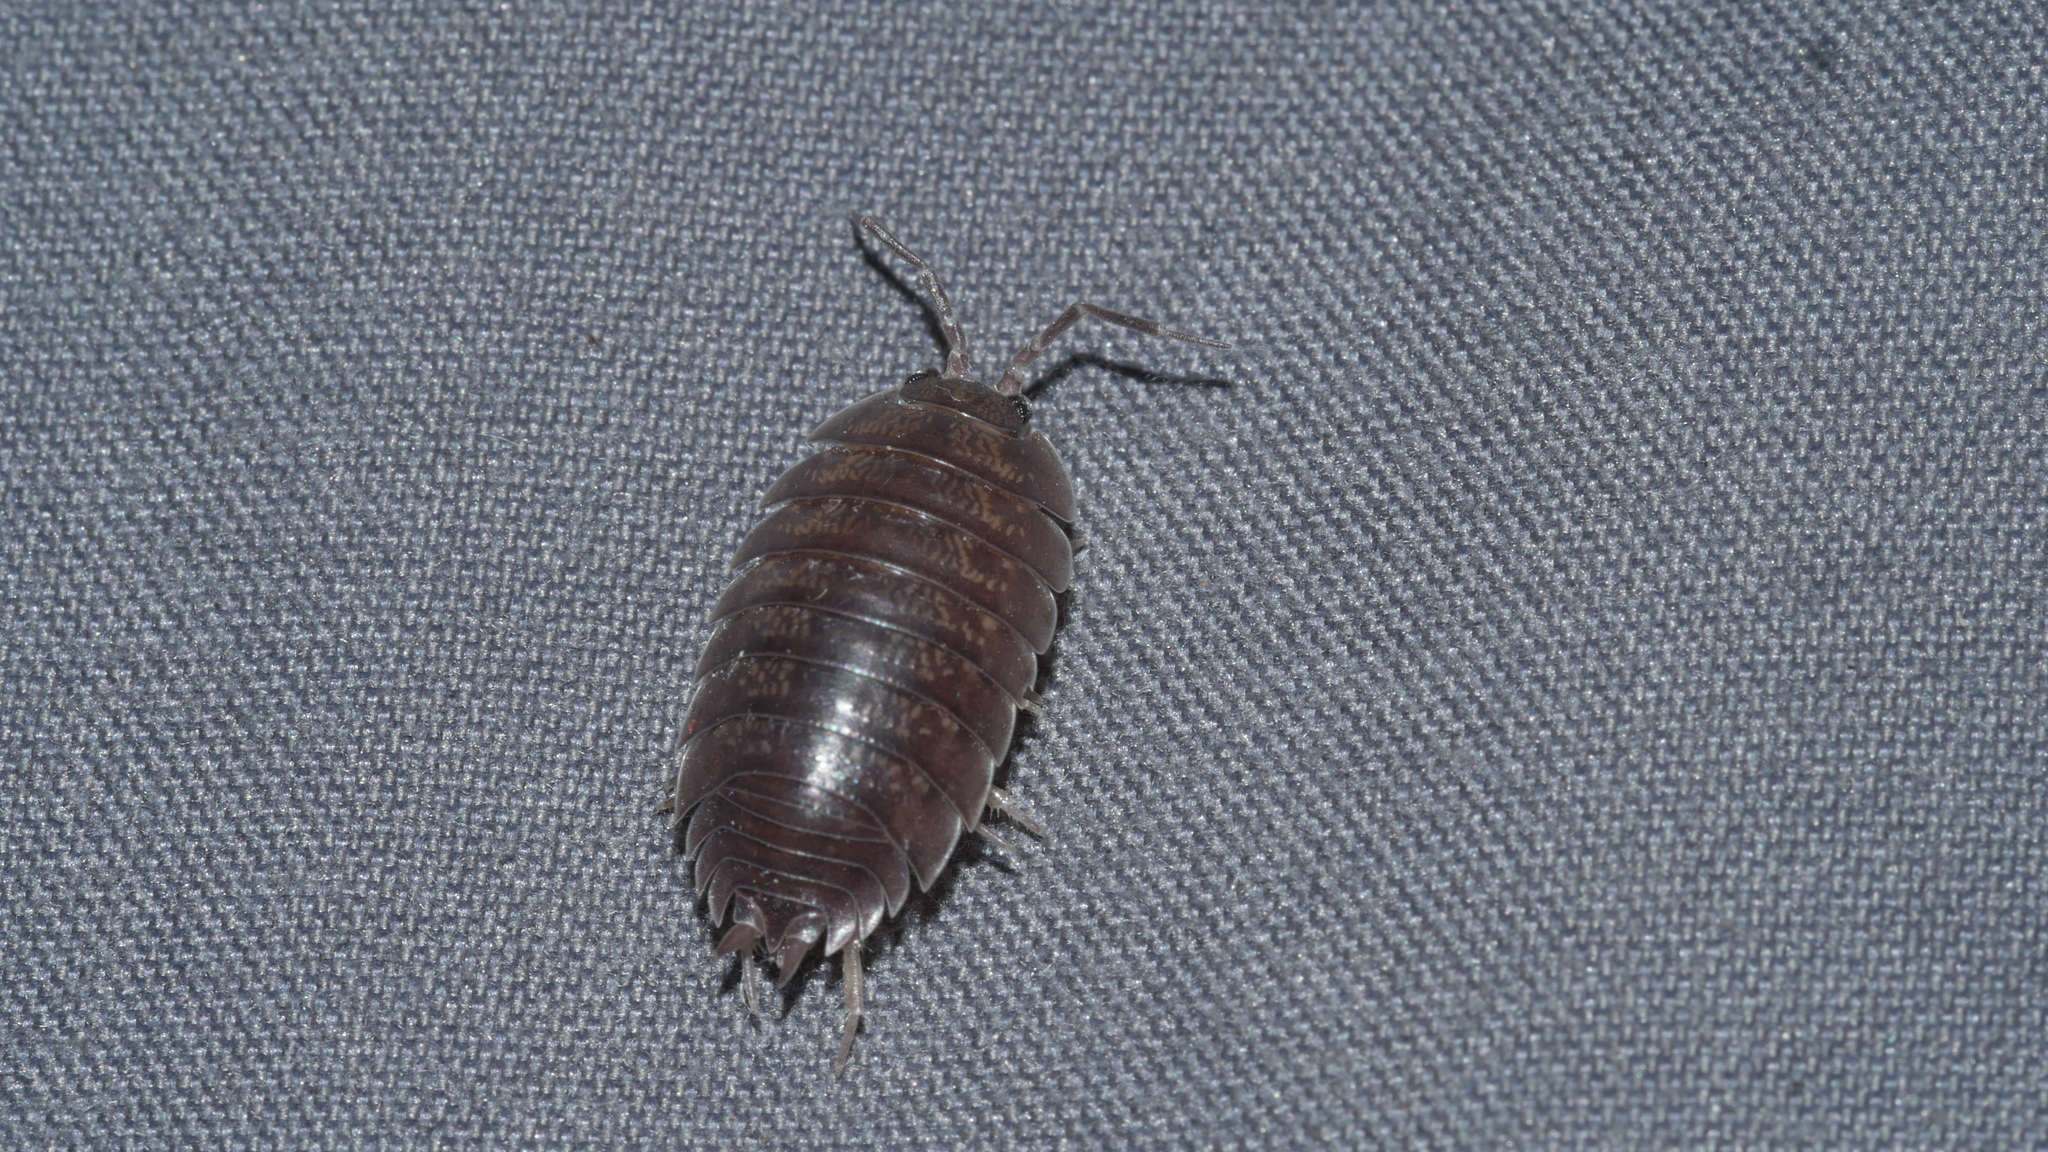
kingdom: Animalia
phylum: Arthropoda
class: Malacostraca
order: Isopoda
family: Porcellionidae
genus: Porcellio
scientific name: Porcellio laevis
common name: Swift woodlouse
